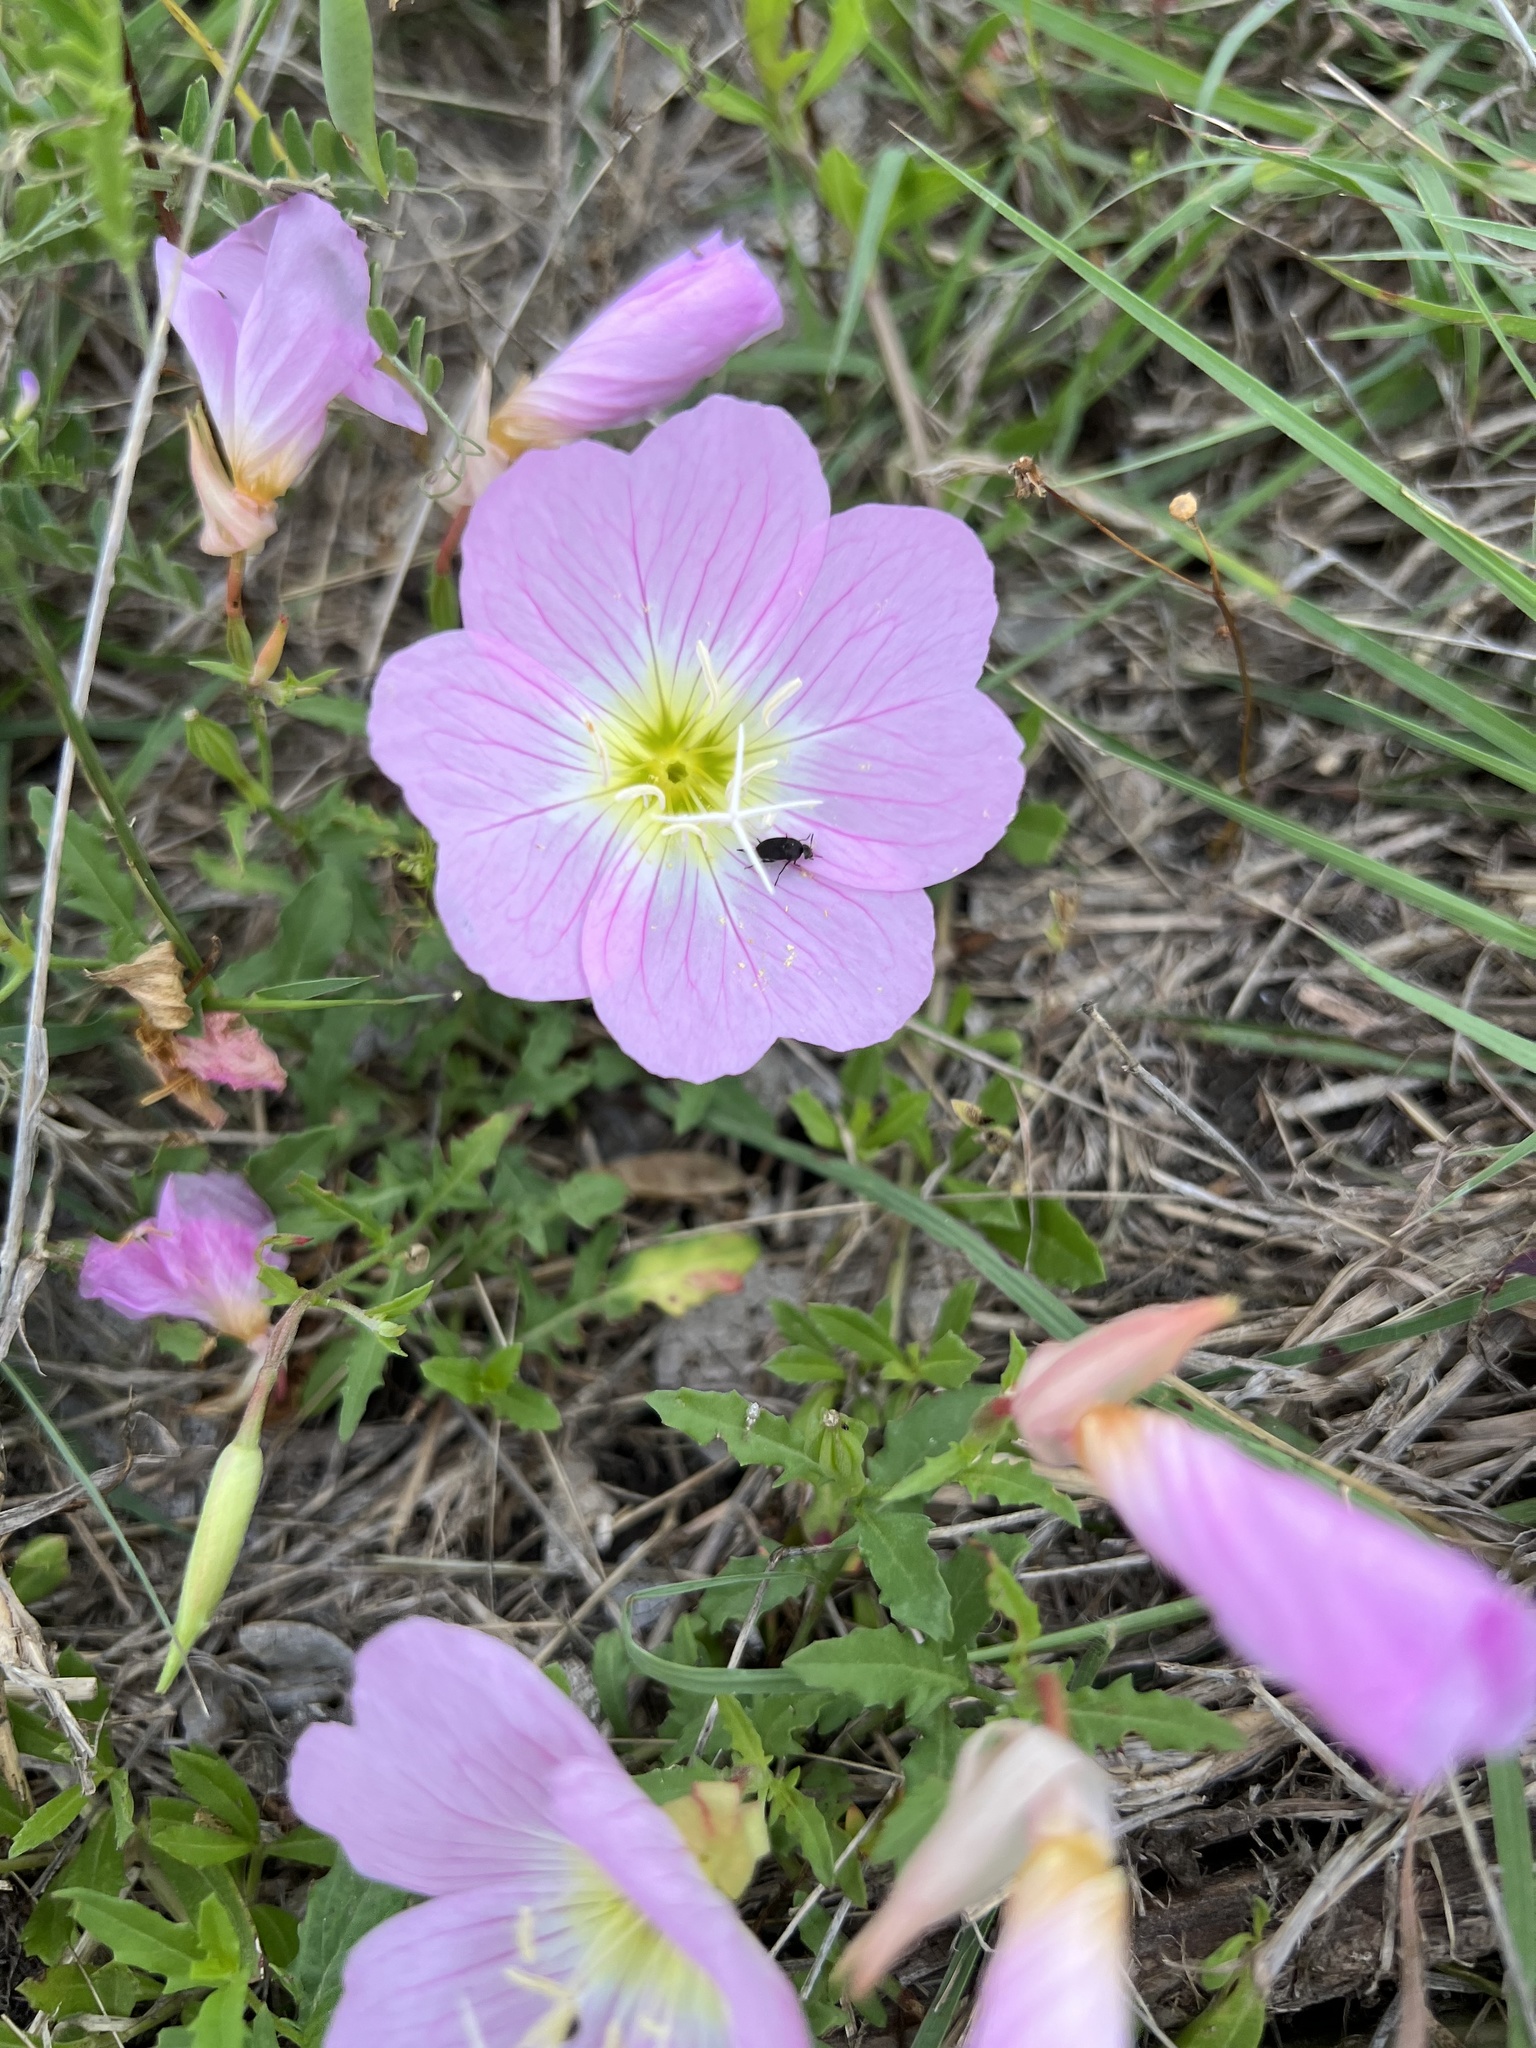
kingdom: Plantae
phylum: Tracheophyta
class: Magnoliopsida
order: Myrtales
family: Onagraceae
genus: Oenothera
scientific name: Oenothera speciosa
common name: White evening-primrose
